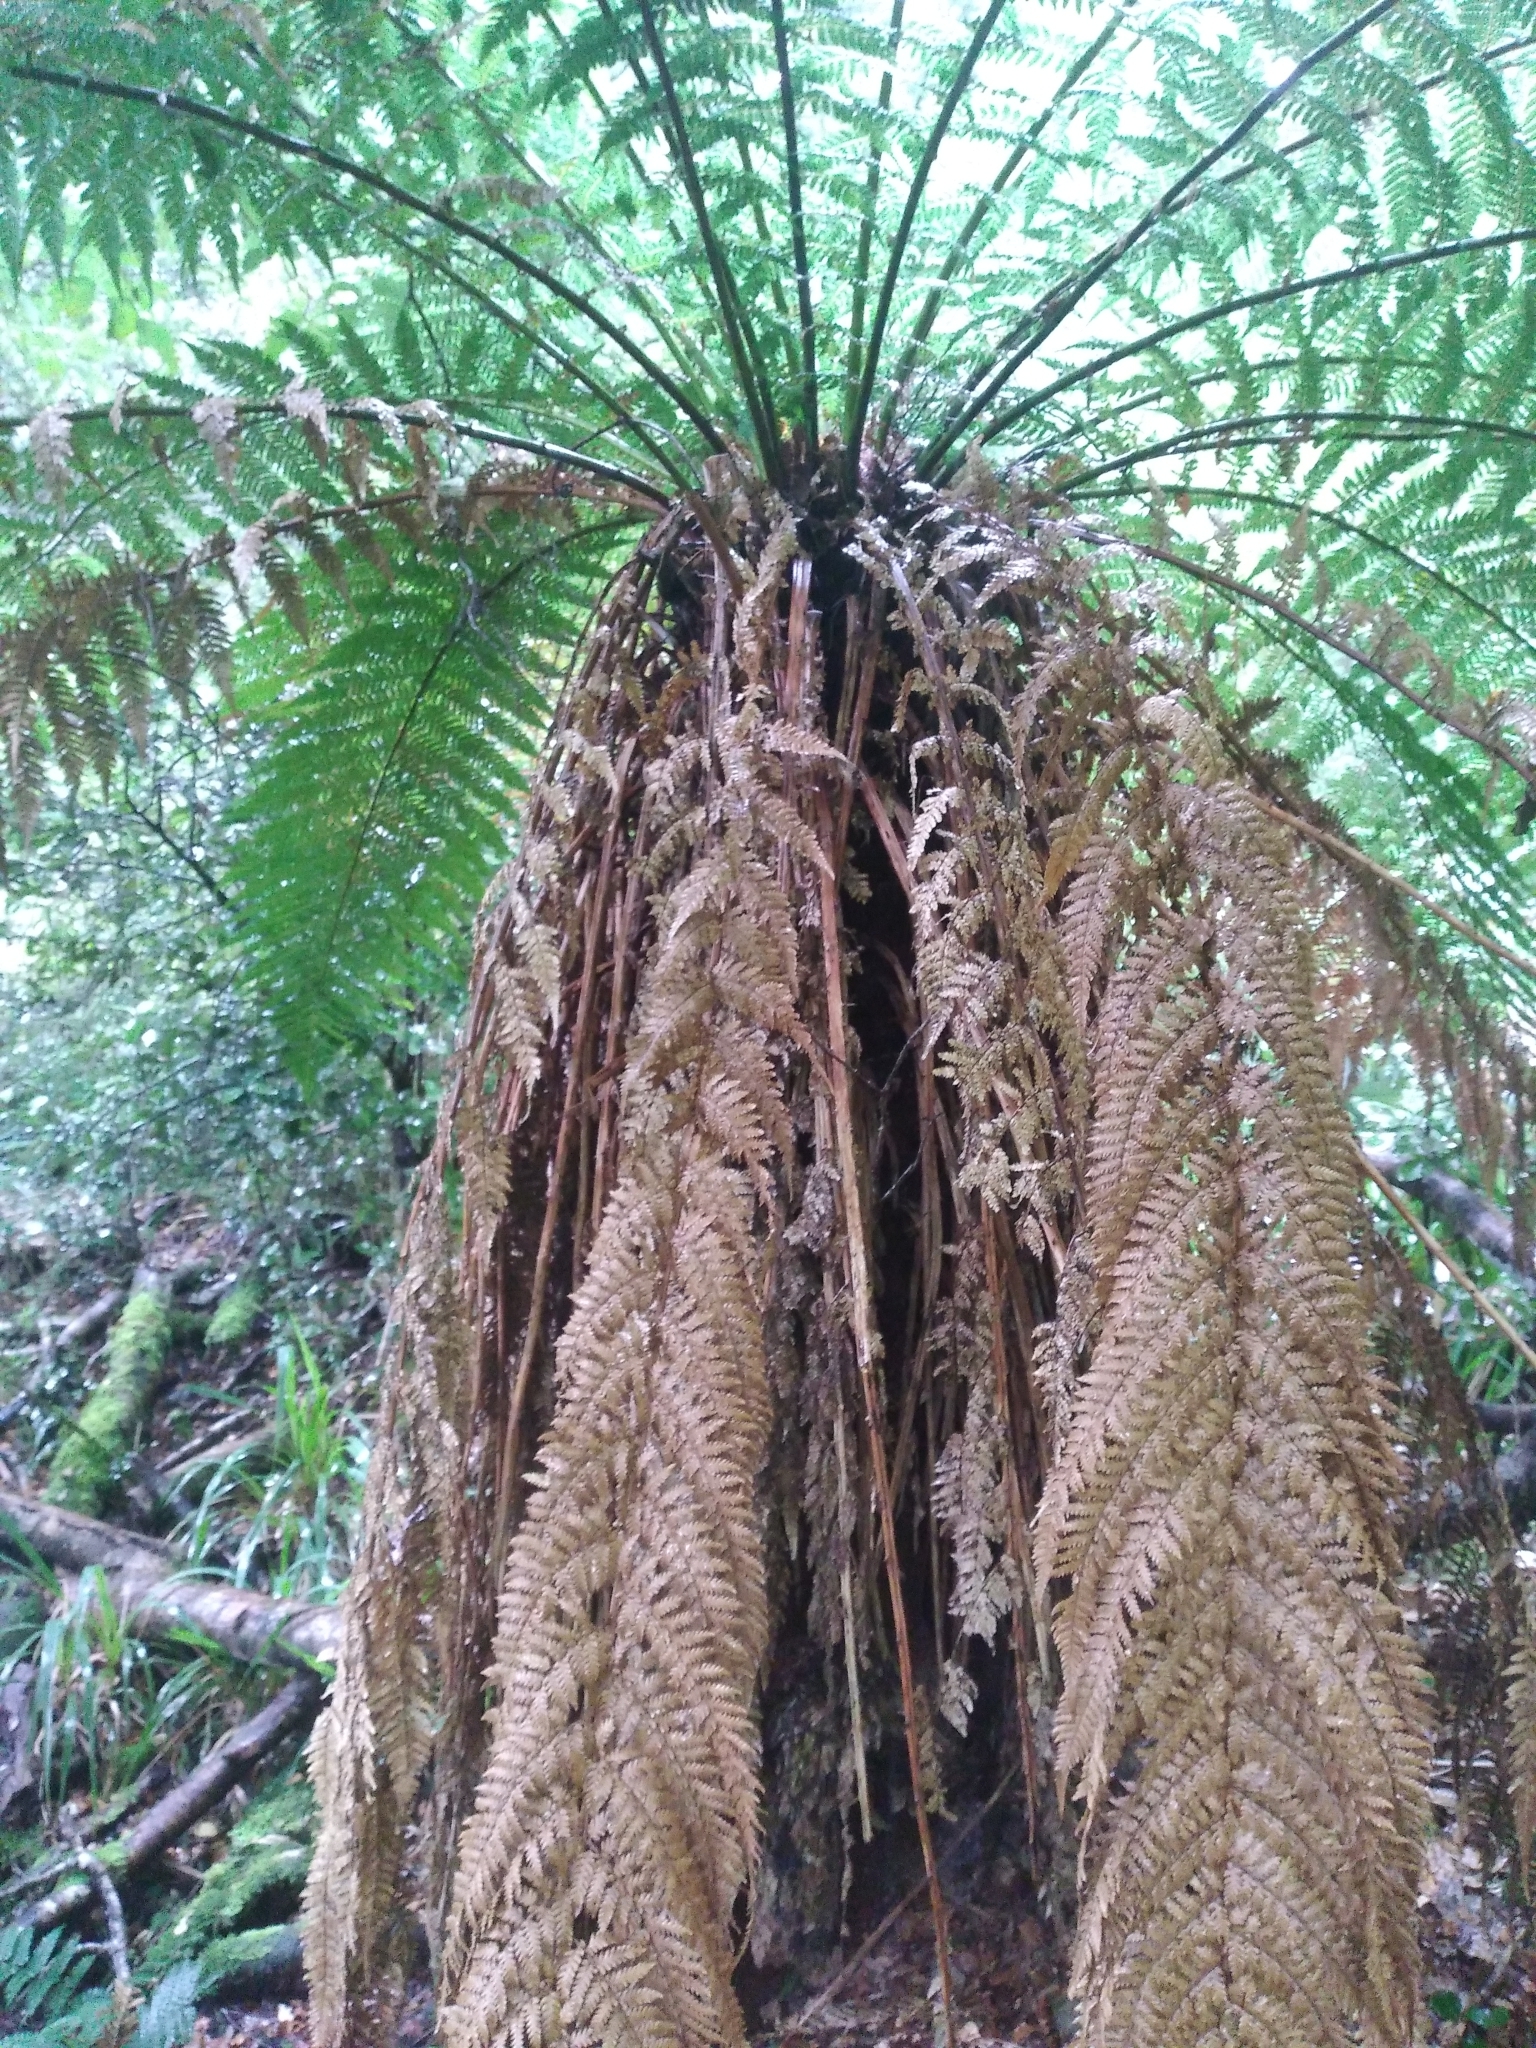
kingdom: Plantae
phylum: Tracheophyta
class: Polypodiopsida
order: Cyatheales
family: Dicksoniaceae
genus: Dicksonia
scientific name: Dicksonia fibrosa
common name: Golden tree fern
